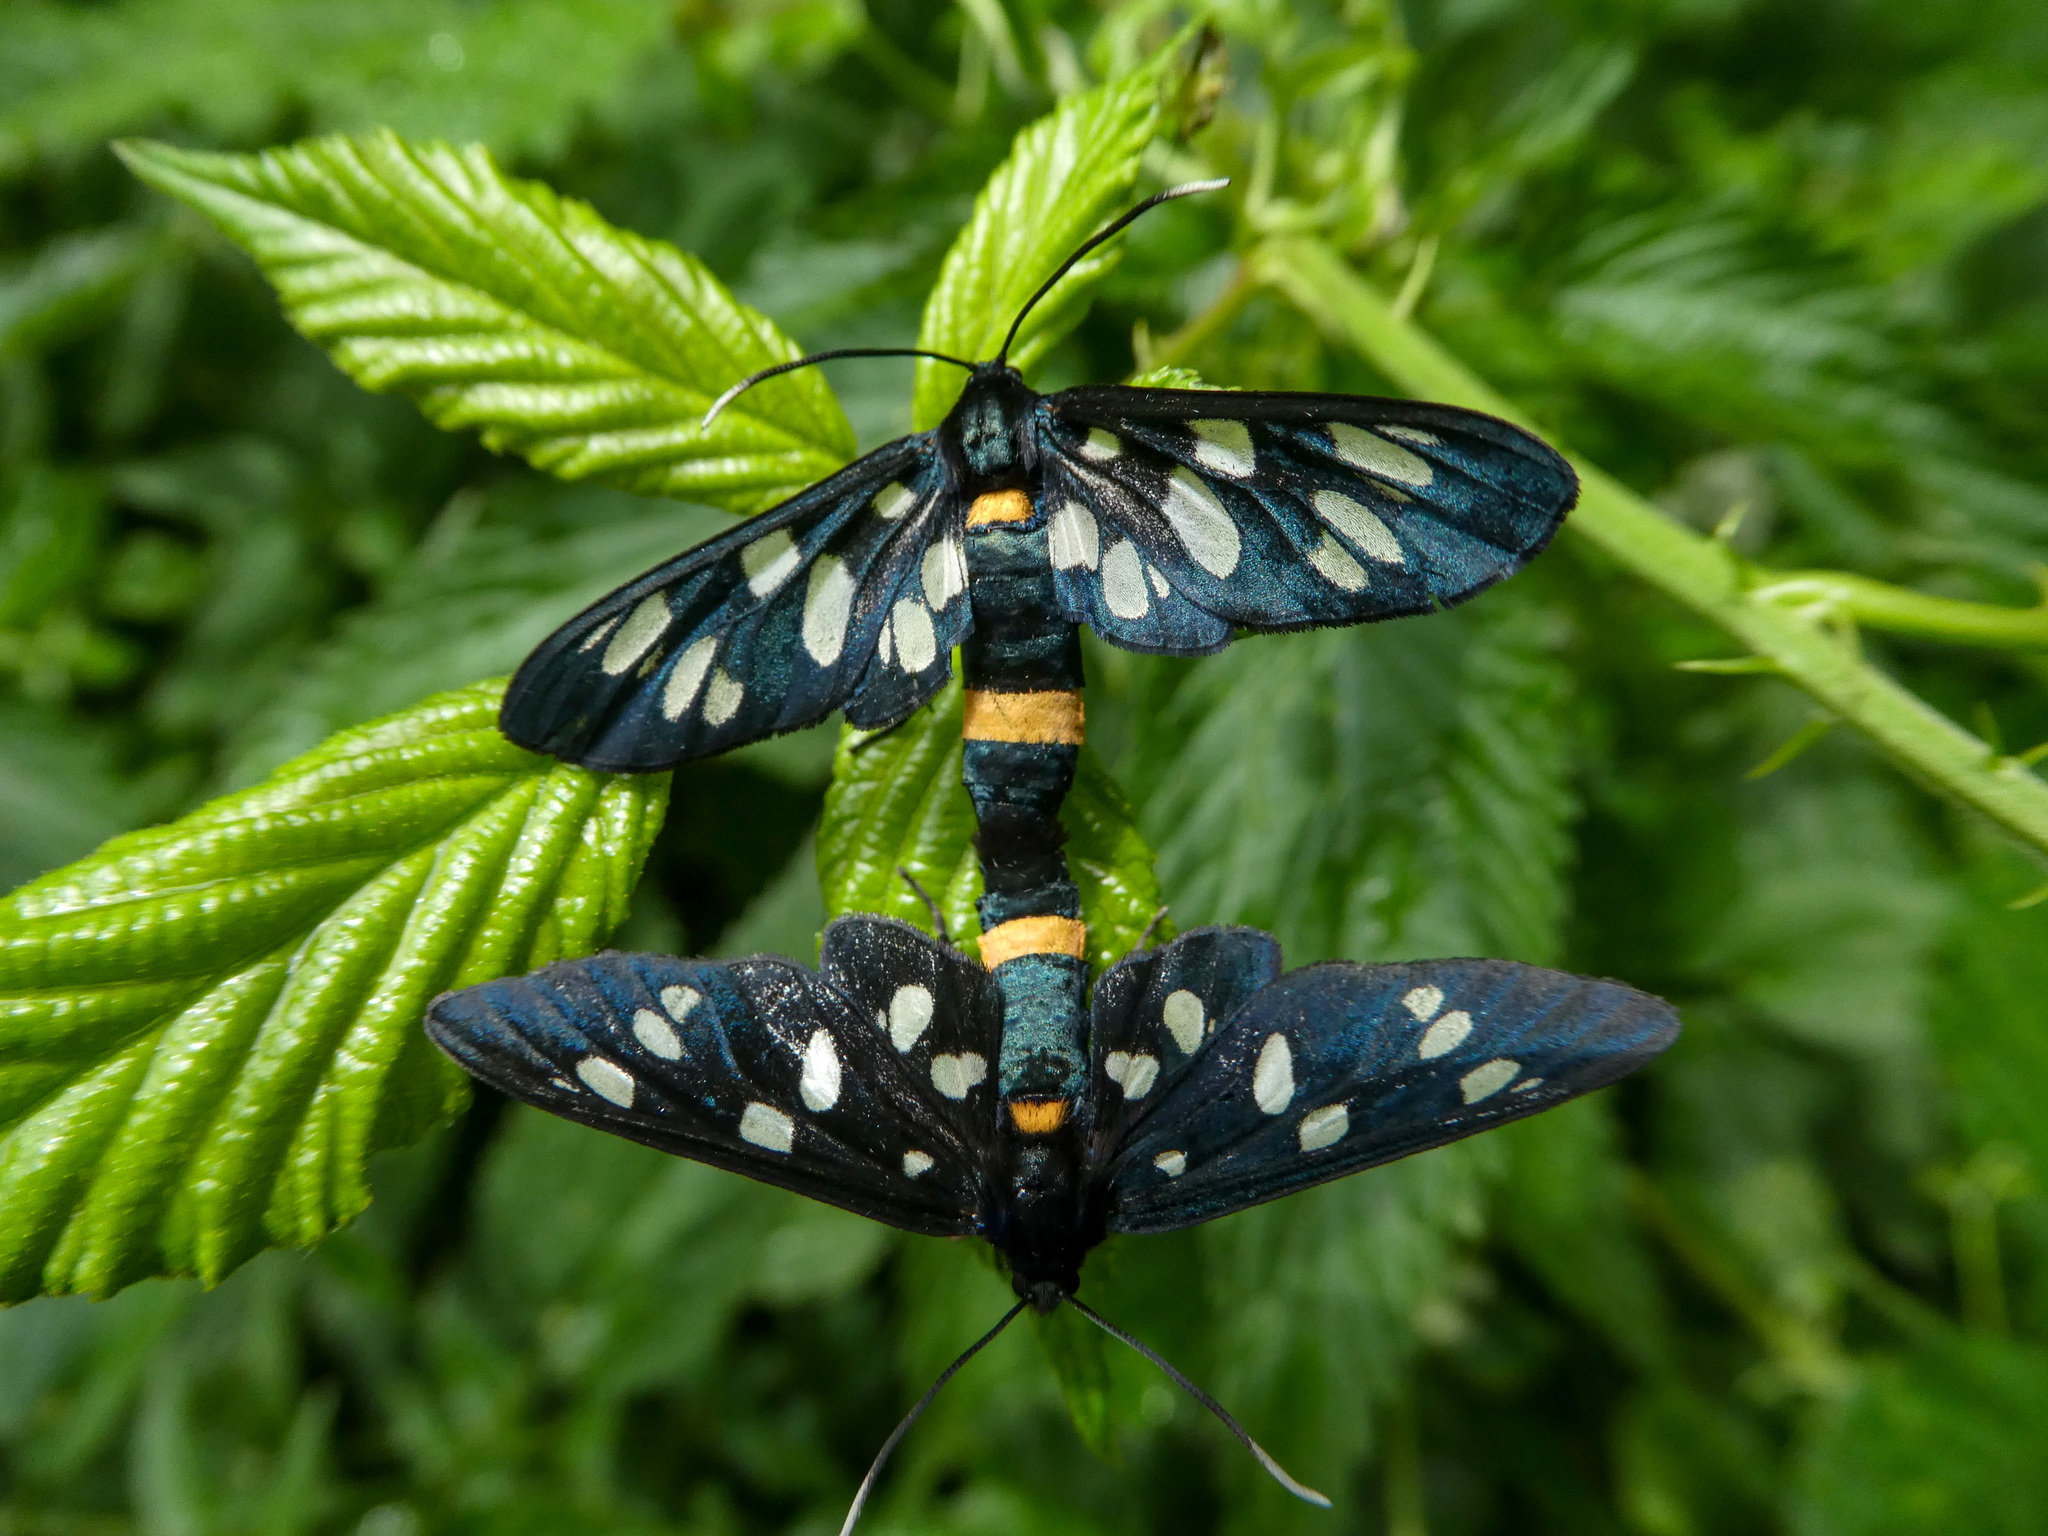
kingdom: Animalia
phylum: Arthropoda
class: Insecta
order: Lepidoptera
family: Erebidae
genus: Amata
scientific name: Amata phegea
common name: Nine-spotted
